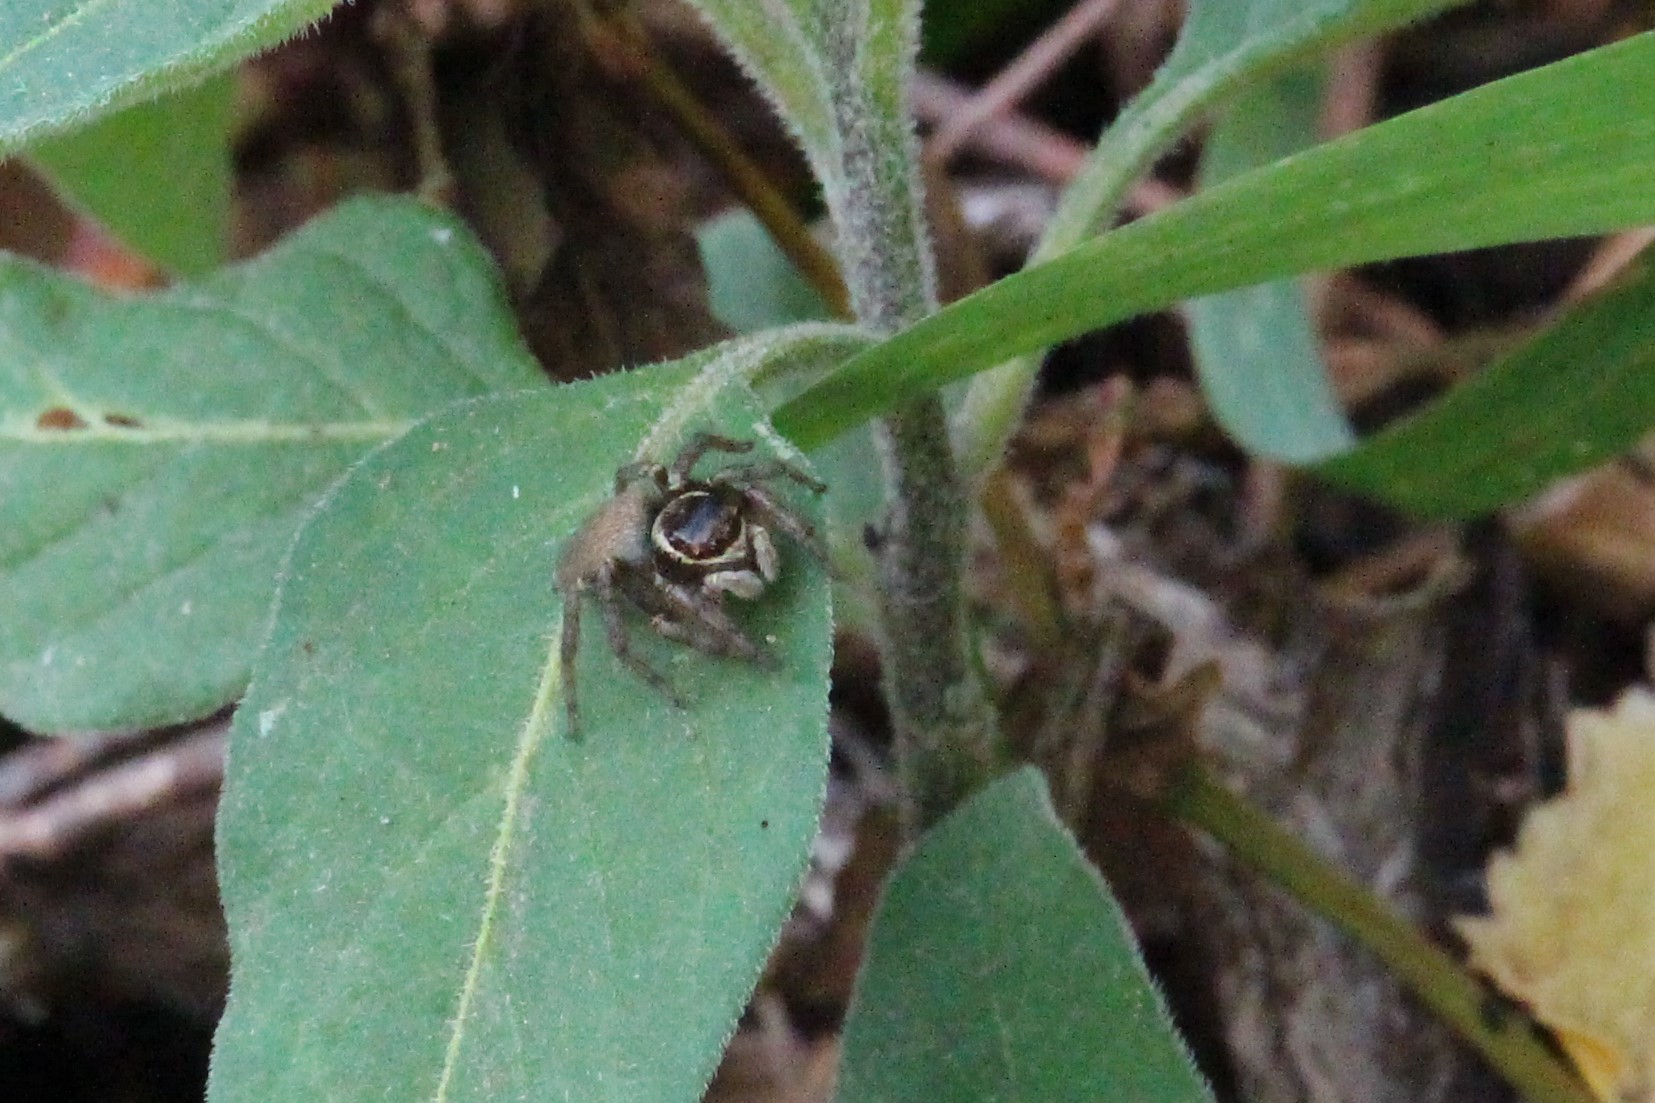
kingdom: Animalia
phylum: Arthropoda
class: Arachnida
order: Araneae
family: Salticidae
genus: Maratus
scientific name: Maratus griseus
